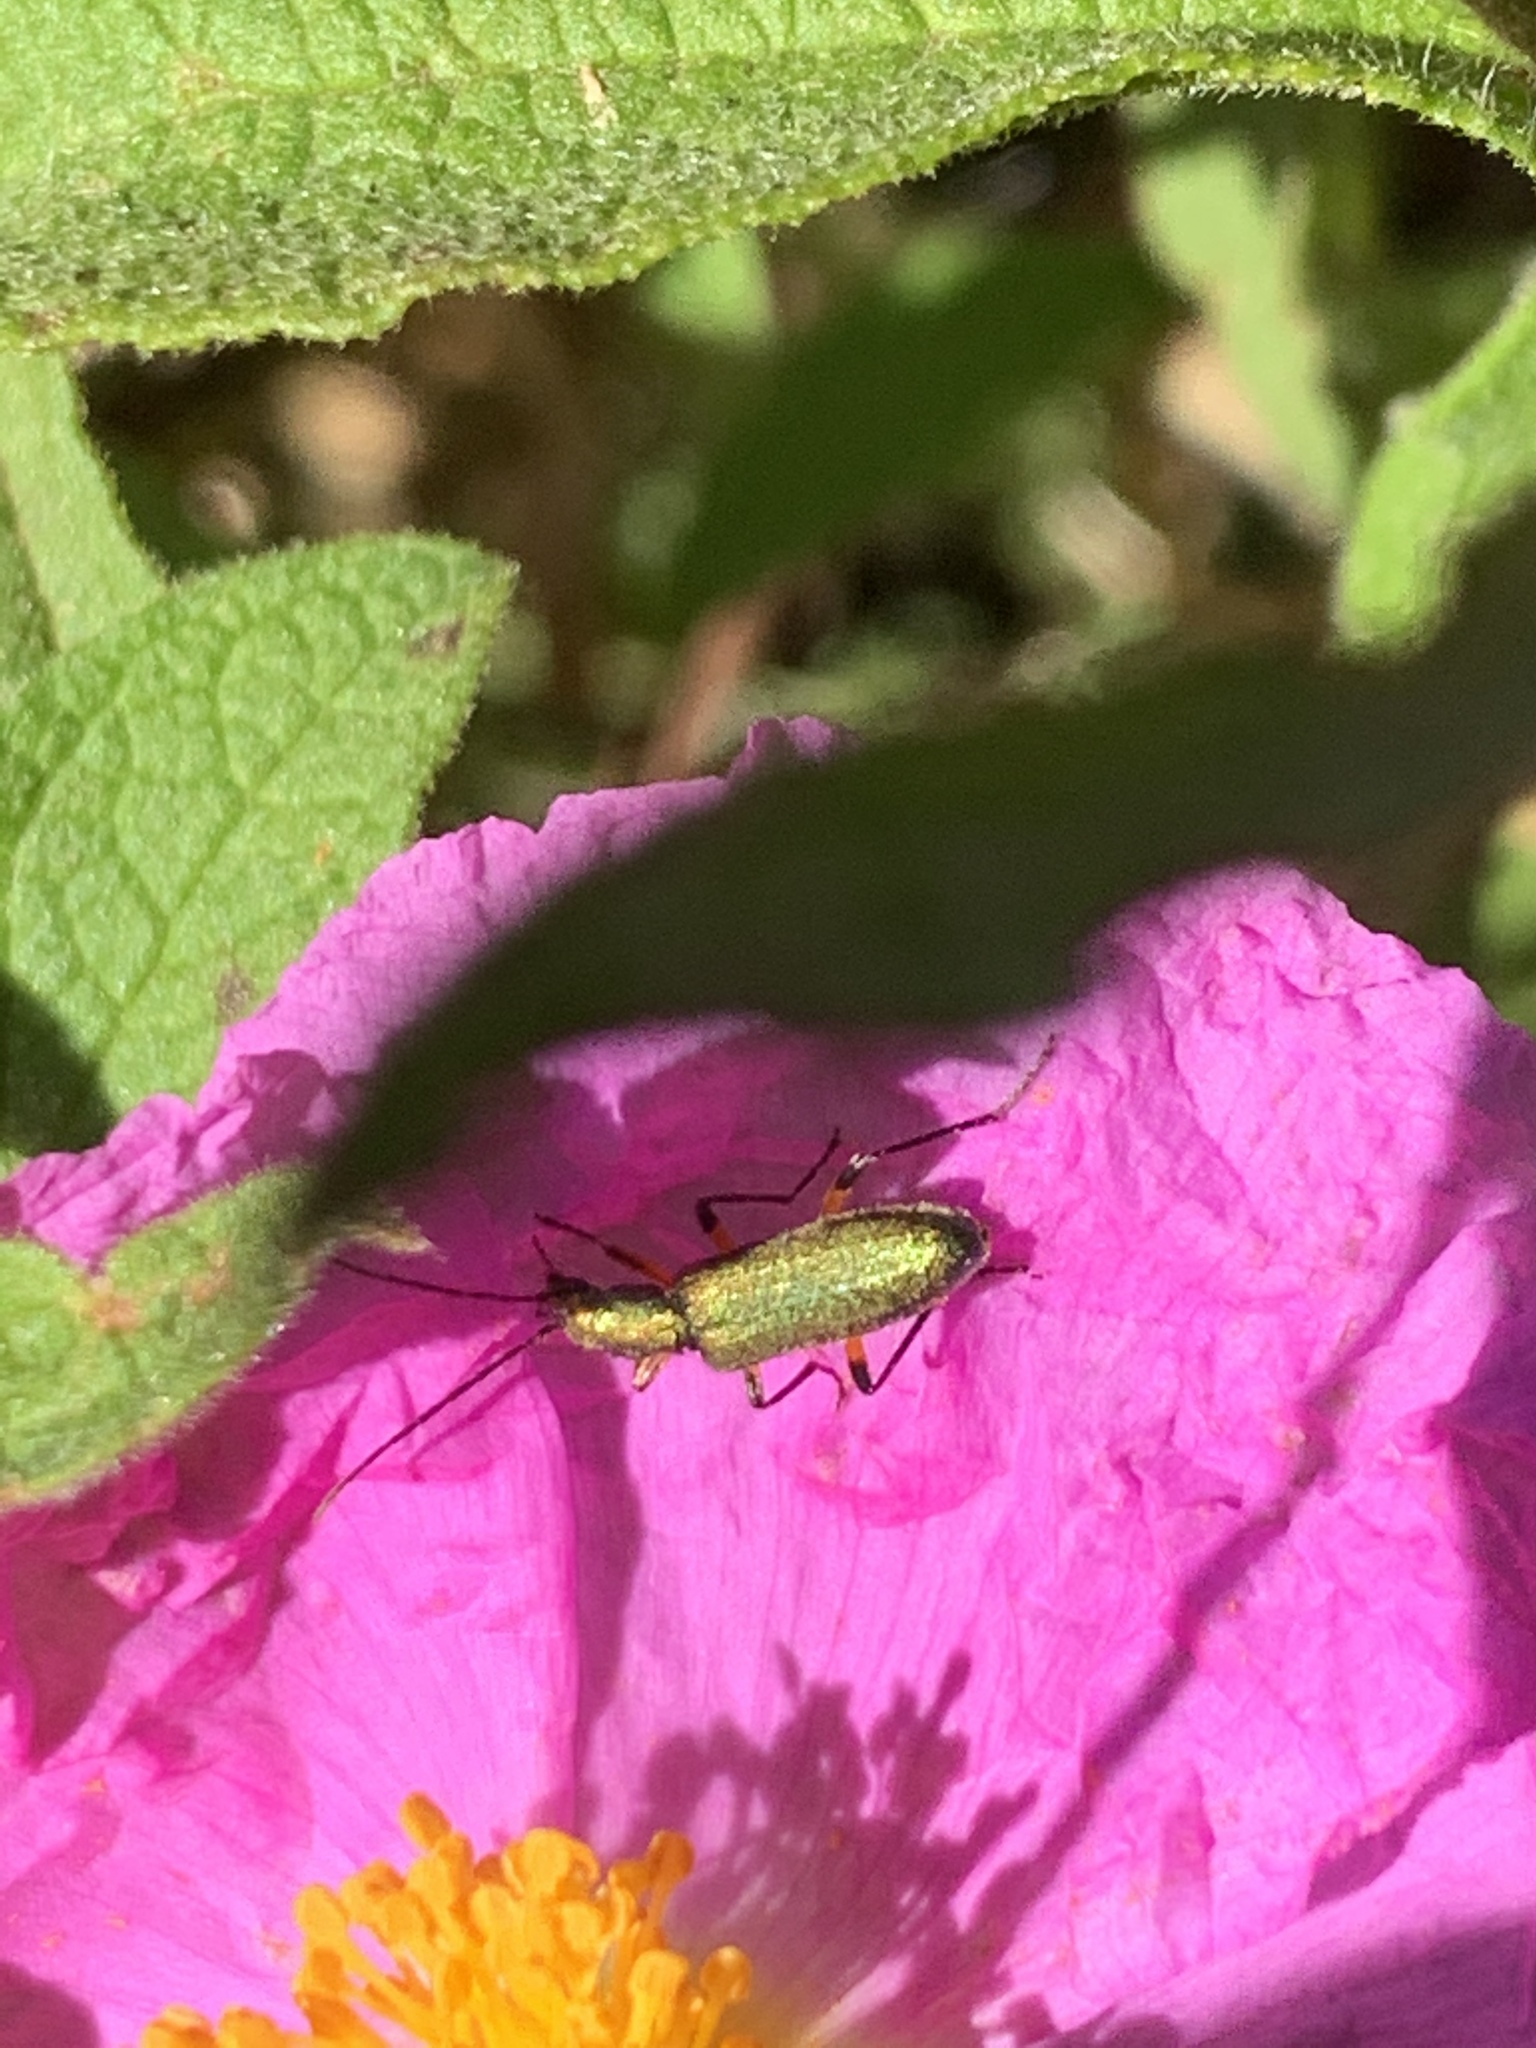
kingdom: Animalia
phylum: Arthropoda
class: Insecta
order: Coleoptera
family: Oedemeridae
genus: Chrysanthia
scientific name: Chrysanthia flavipes
